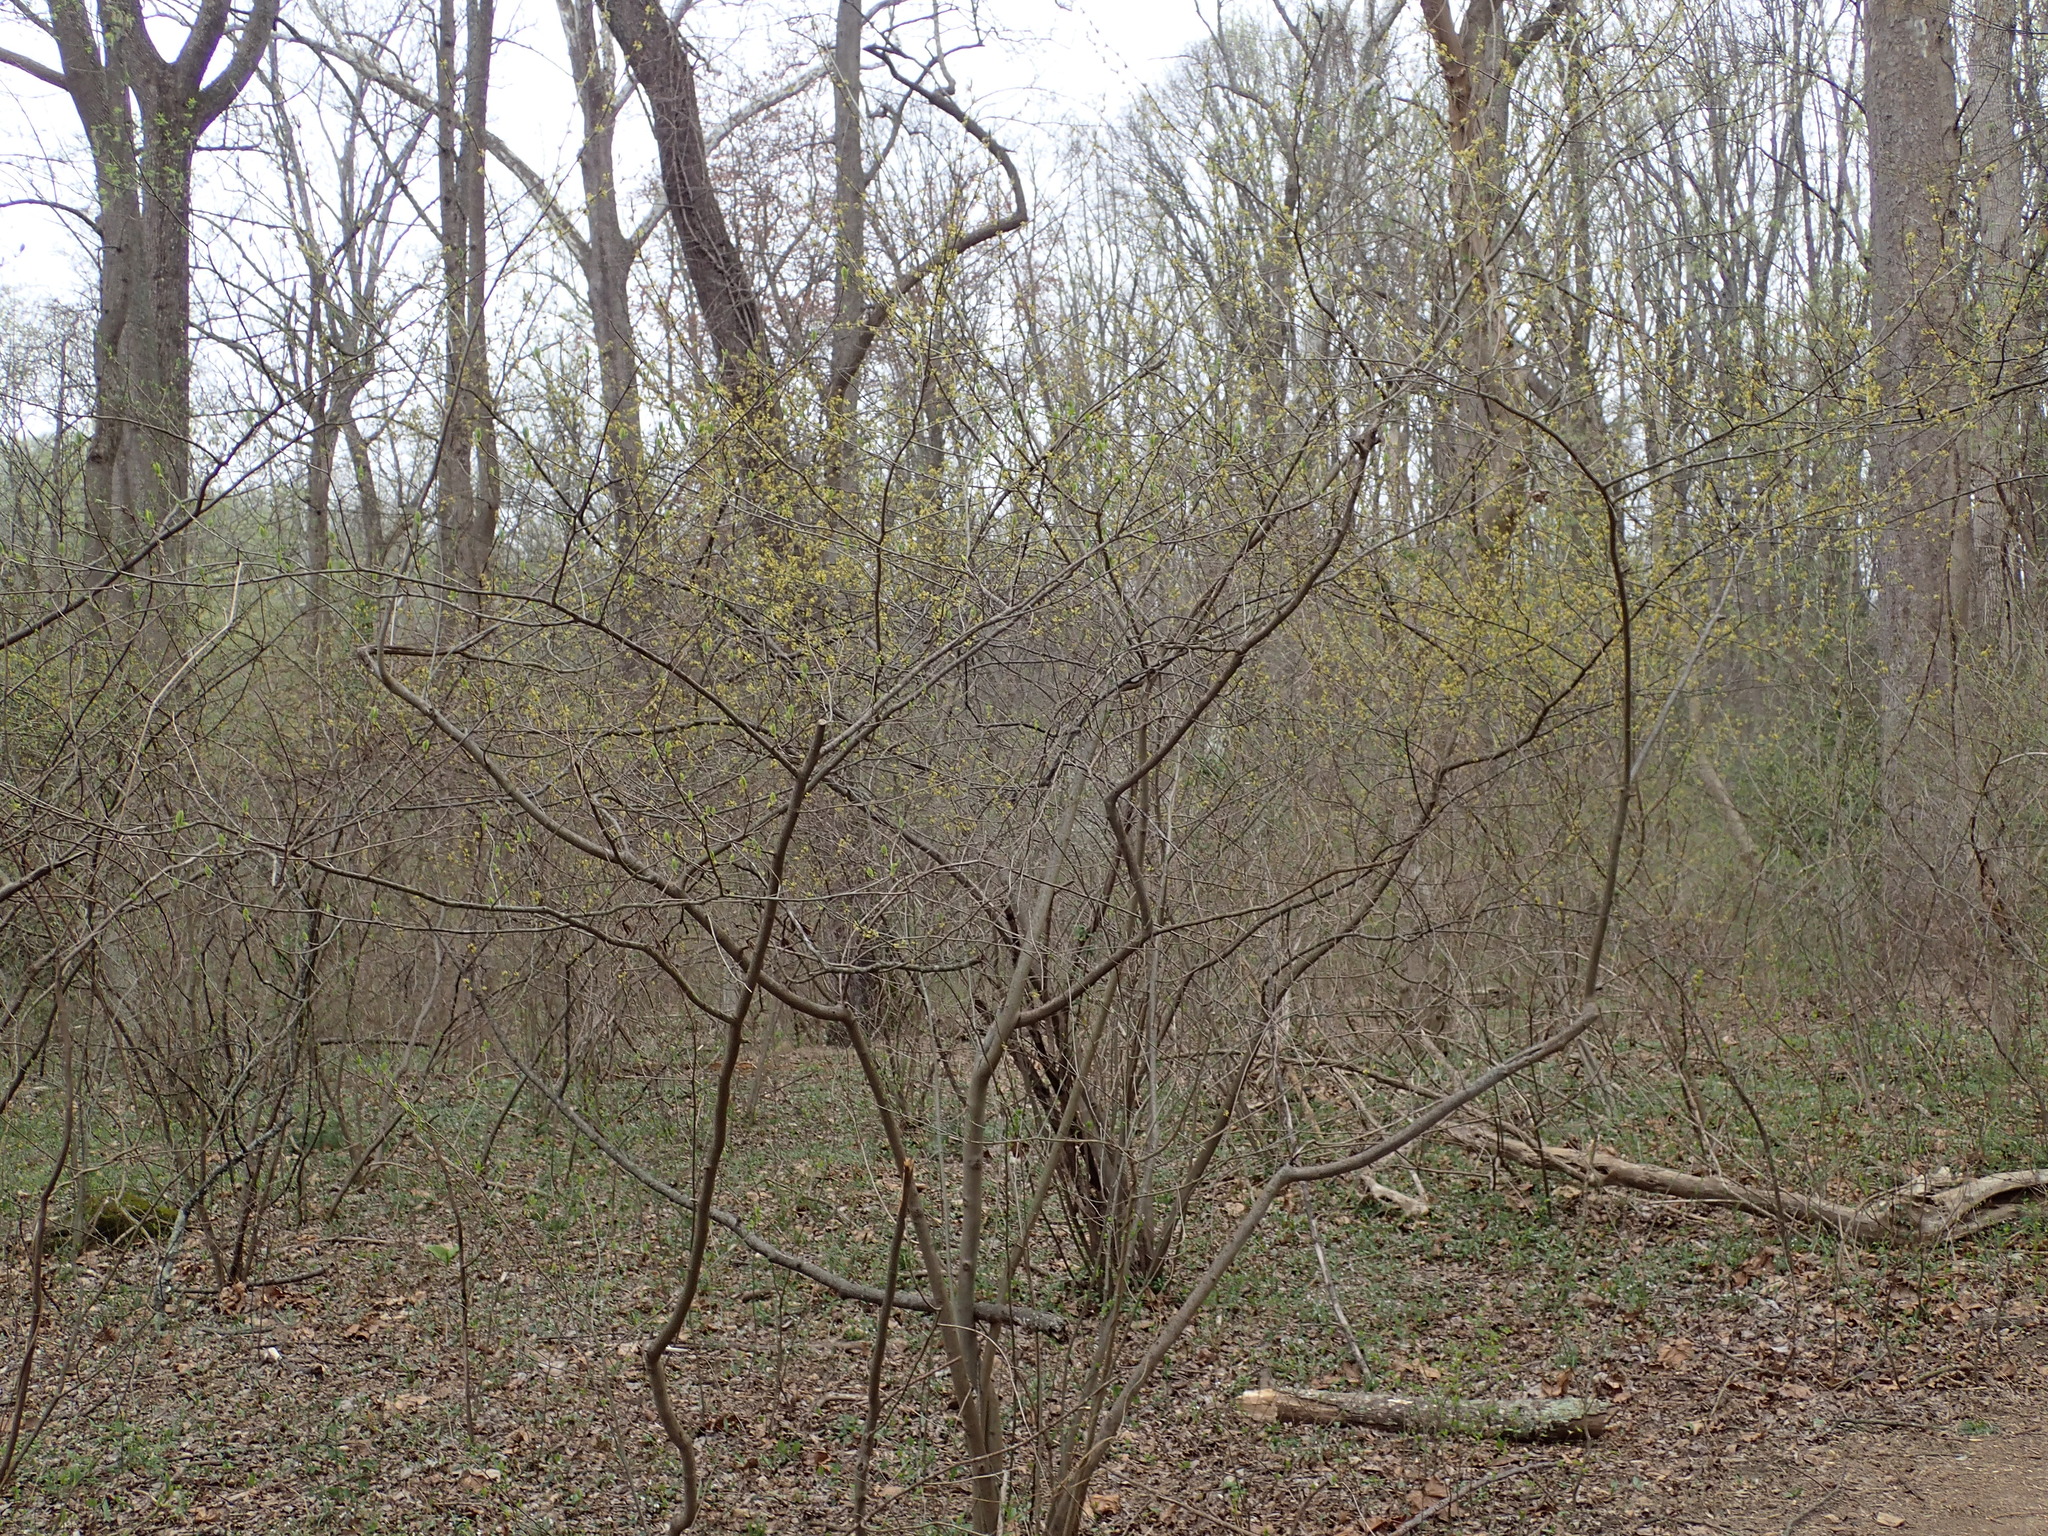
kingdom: Plantae
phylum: Tracheophyta
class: Magnoliopsida
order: Laurales
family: Lauraceae
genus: Lindera
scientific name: Lindera benzoin
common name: Spicebush
